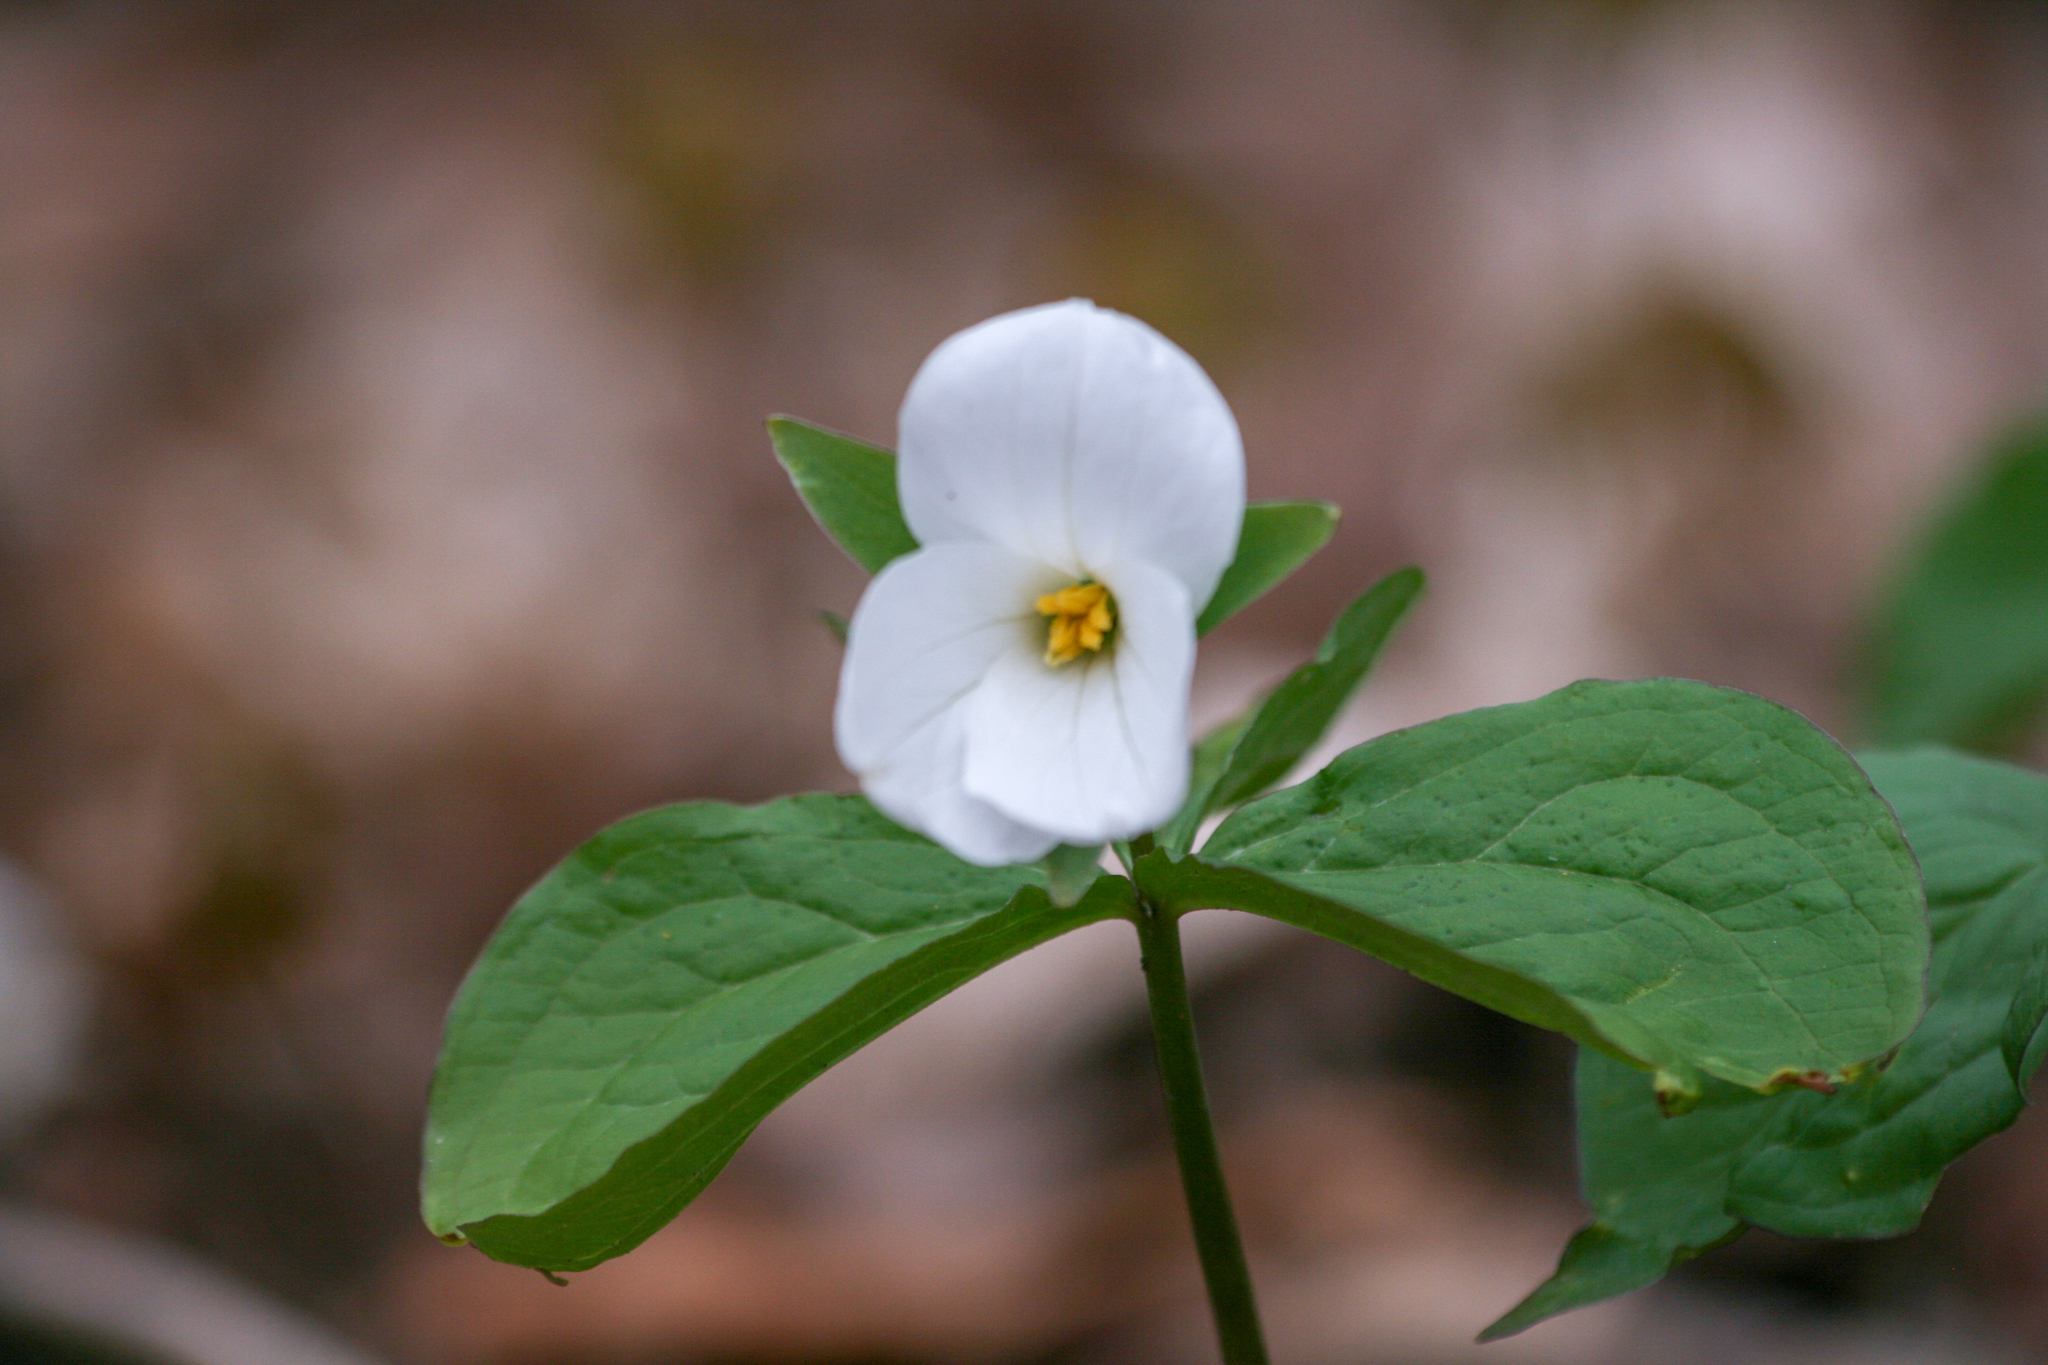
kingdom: Plantae
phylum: Tracheophyta
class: Liliopsida
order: Liliales
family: Melanthiaceae
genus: Trillium
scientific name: Trillium grandiflorum
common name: Great white trillium
